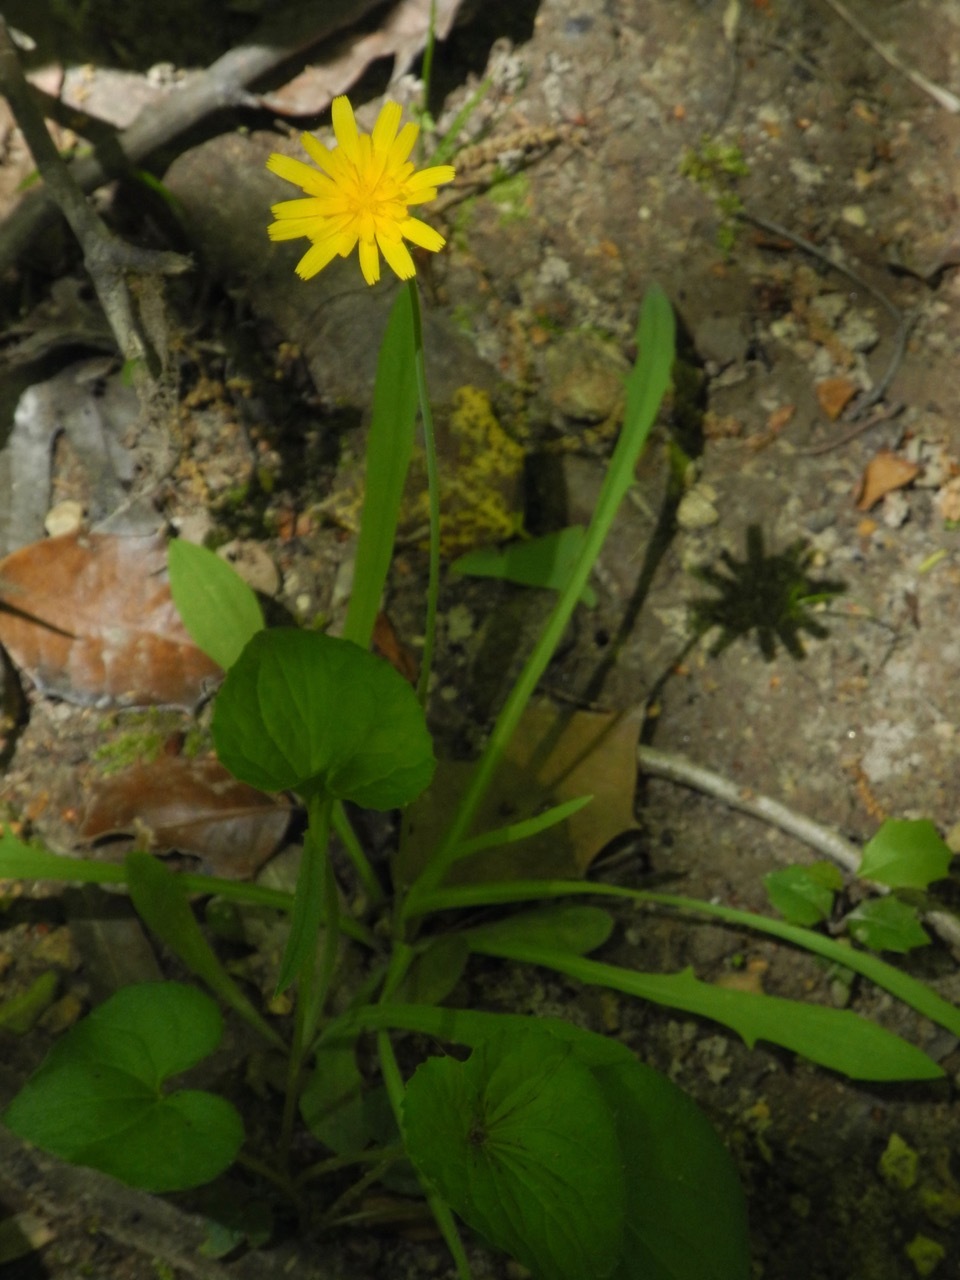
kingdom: Plantae
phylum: Tracheophyta
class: Magnoliopsida
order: Asterales
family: Asteraceae
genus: Krigia
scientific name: Krigia dandelion
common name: Colonial dwarf-dandelion
